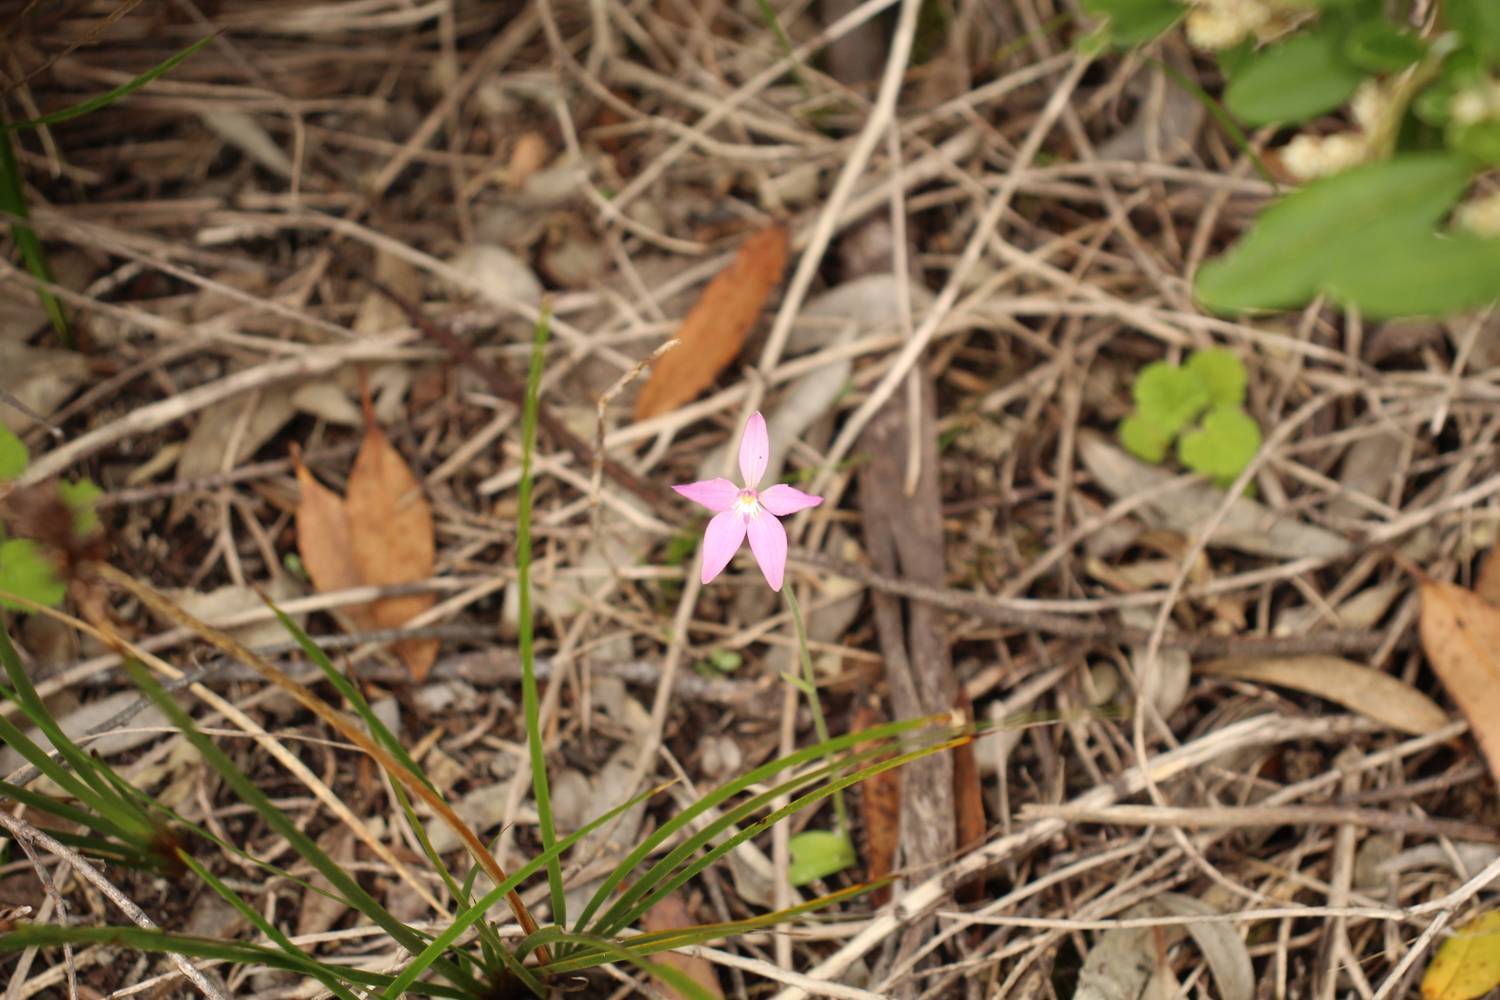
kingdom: Plantae
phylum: Tracheophyta
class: Liliopsida
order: Asparagales
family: Orchidaceae
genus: Caladenia
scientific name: Caladenia latifolia
